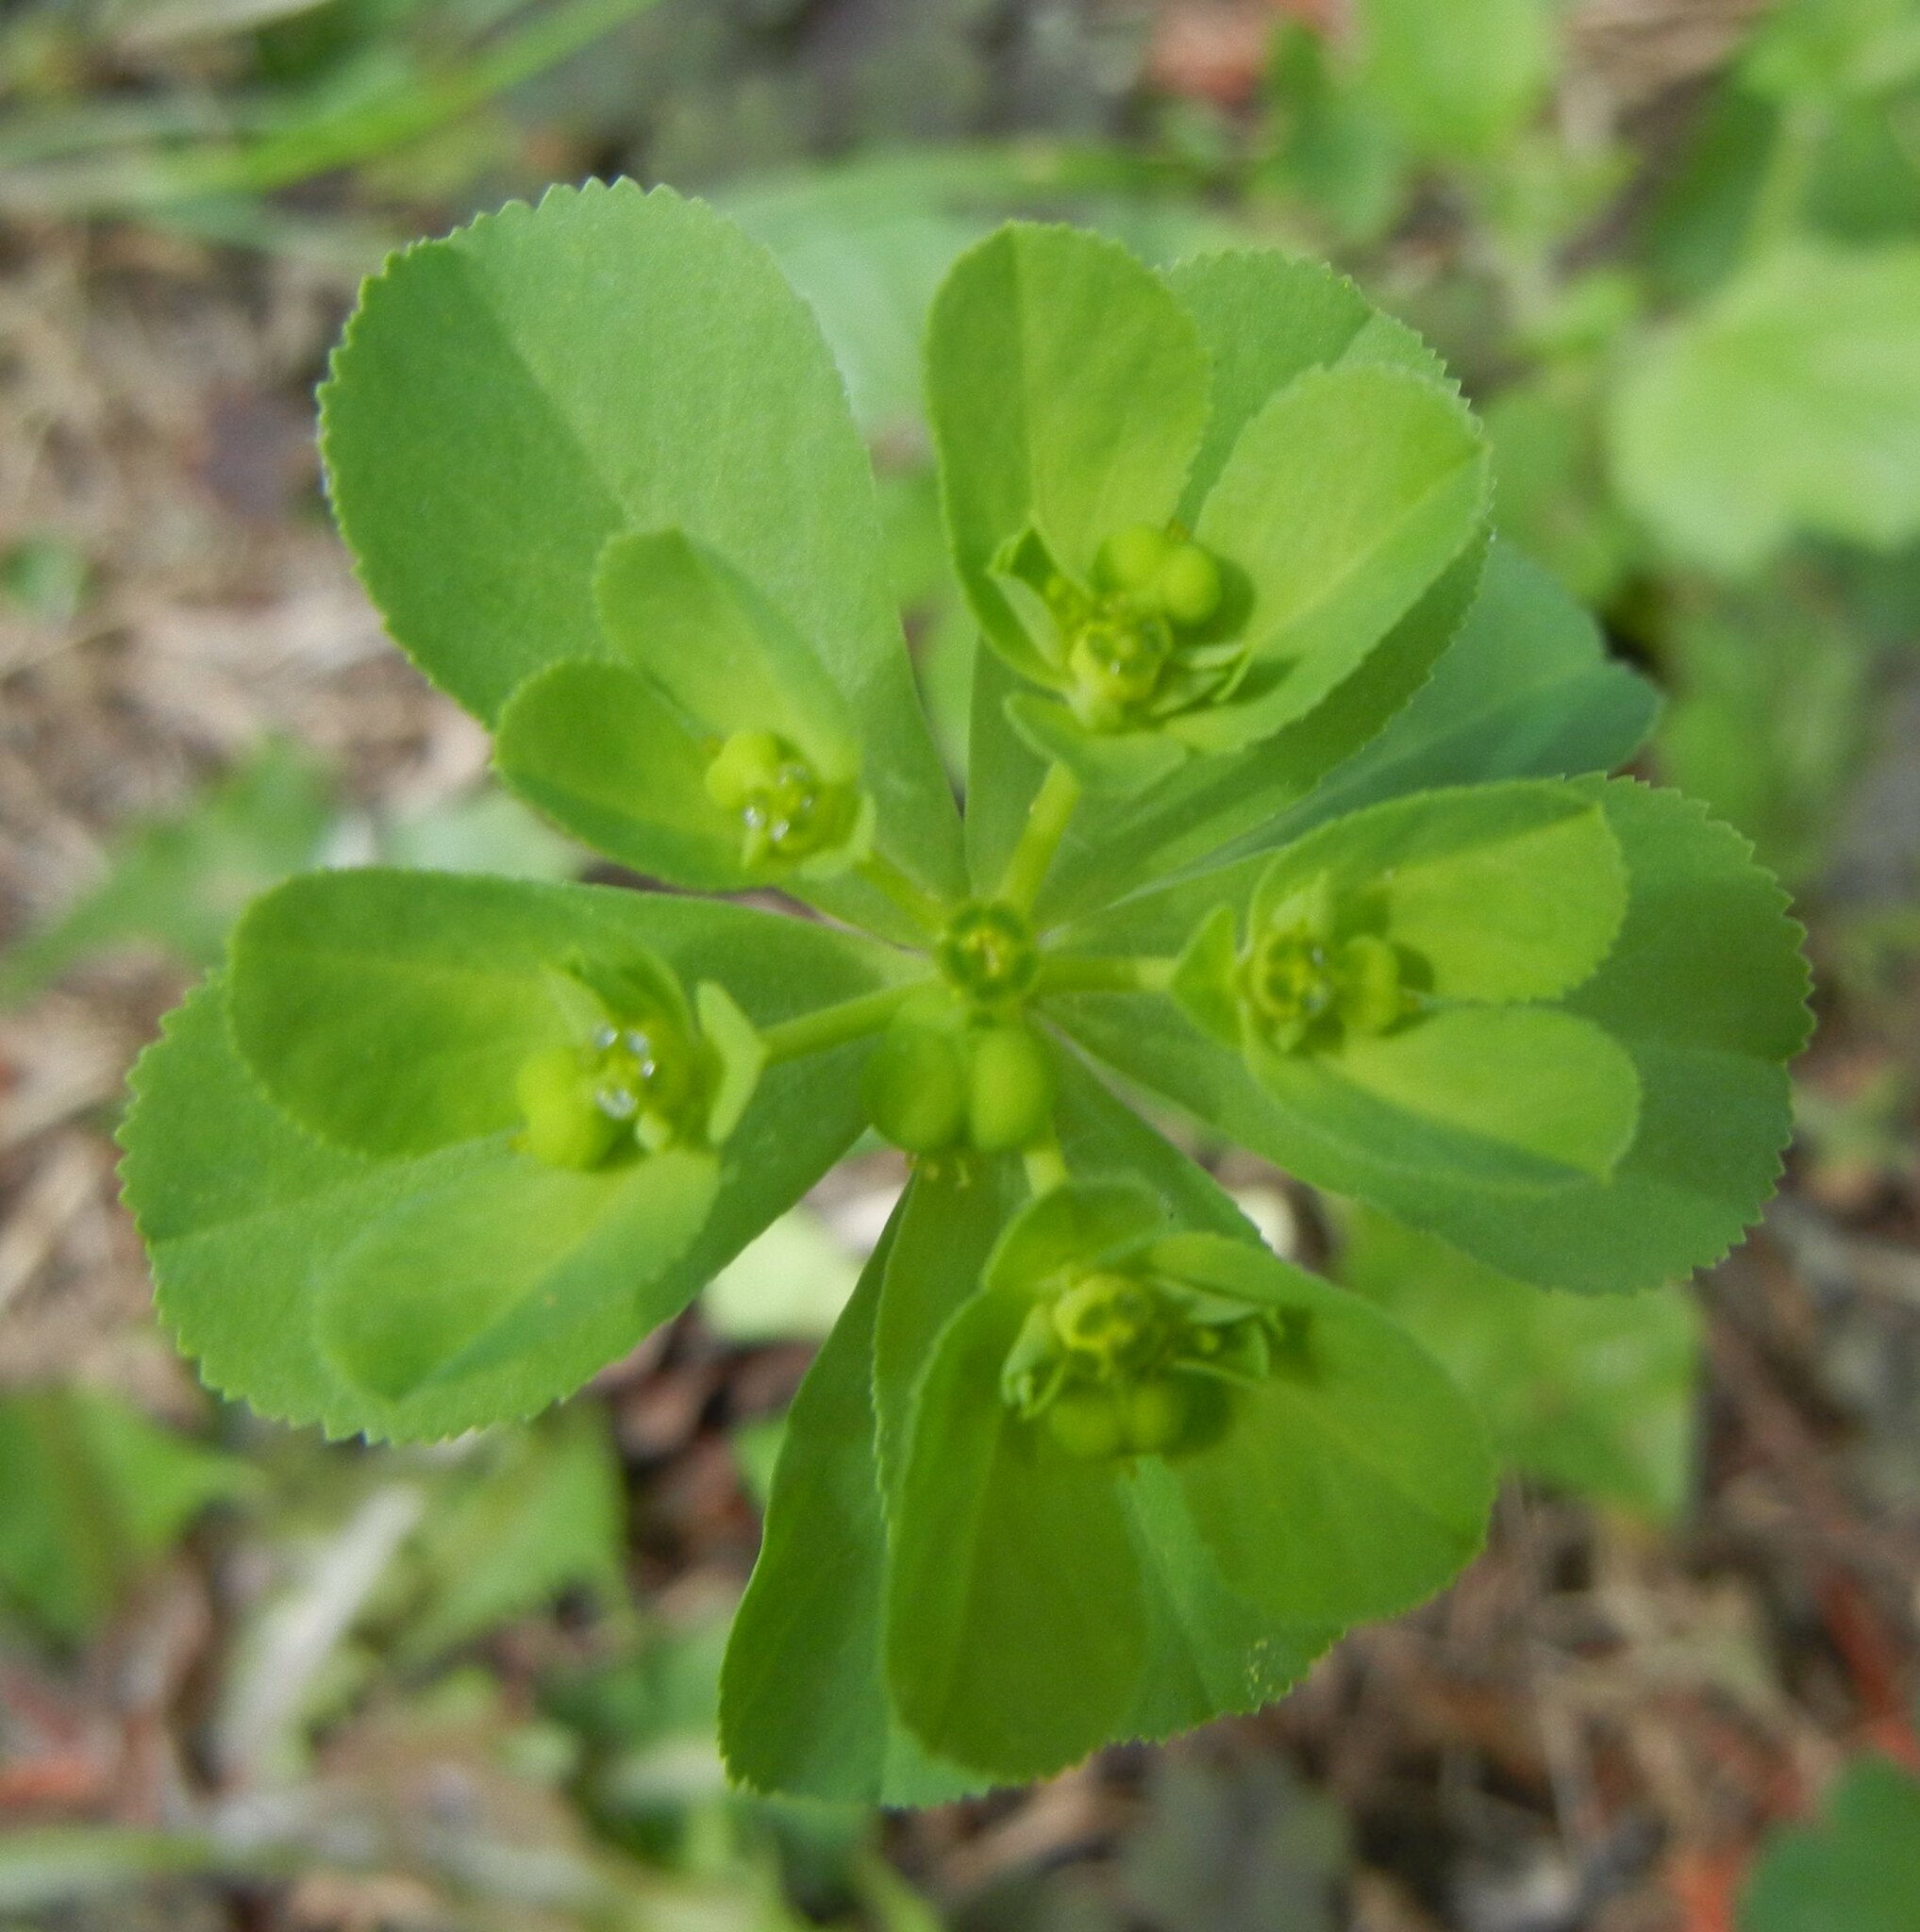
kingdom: Plantae
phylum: Tracheophyta
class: Magnoliopsida
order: Malpighiales
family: Euphorbiaceae
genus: Euphorbia
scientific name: Euphorbia helioscopia
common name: Sun spurge
